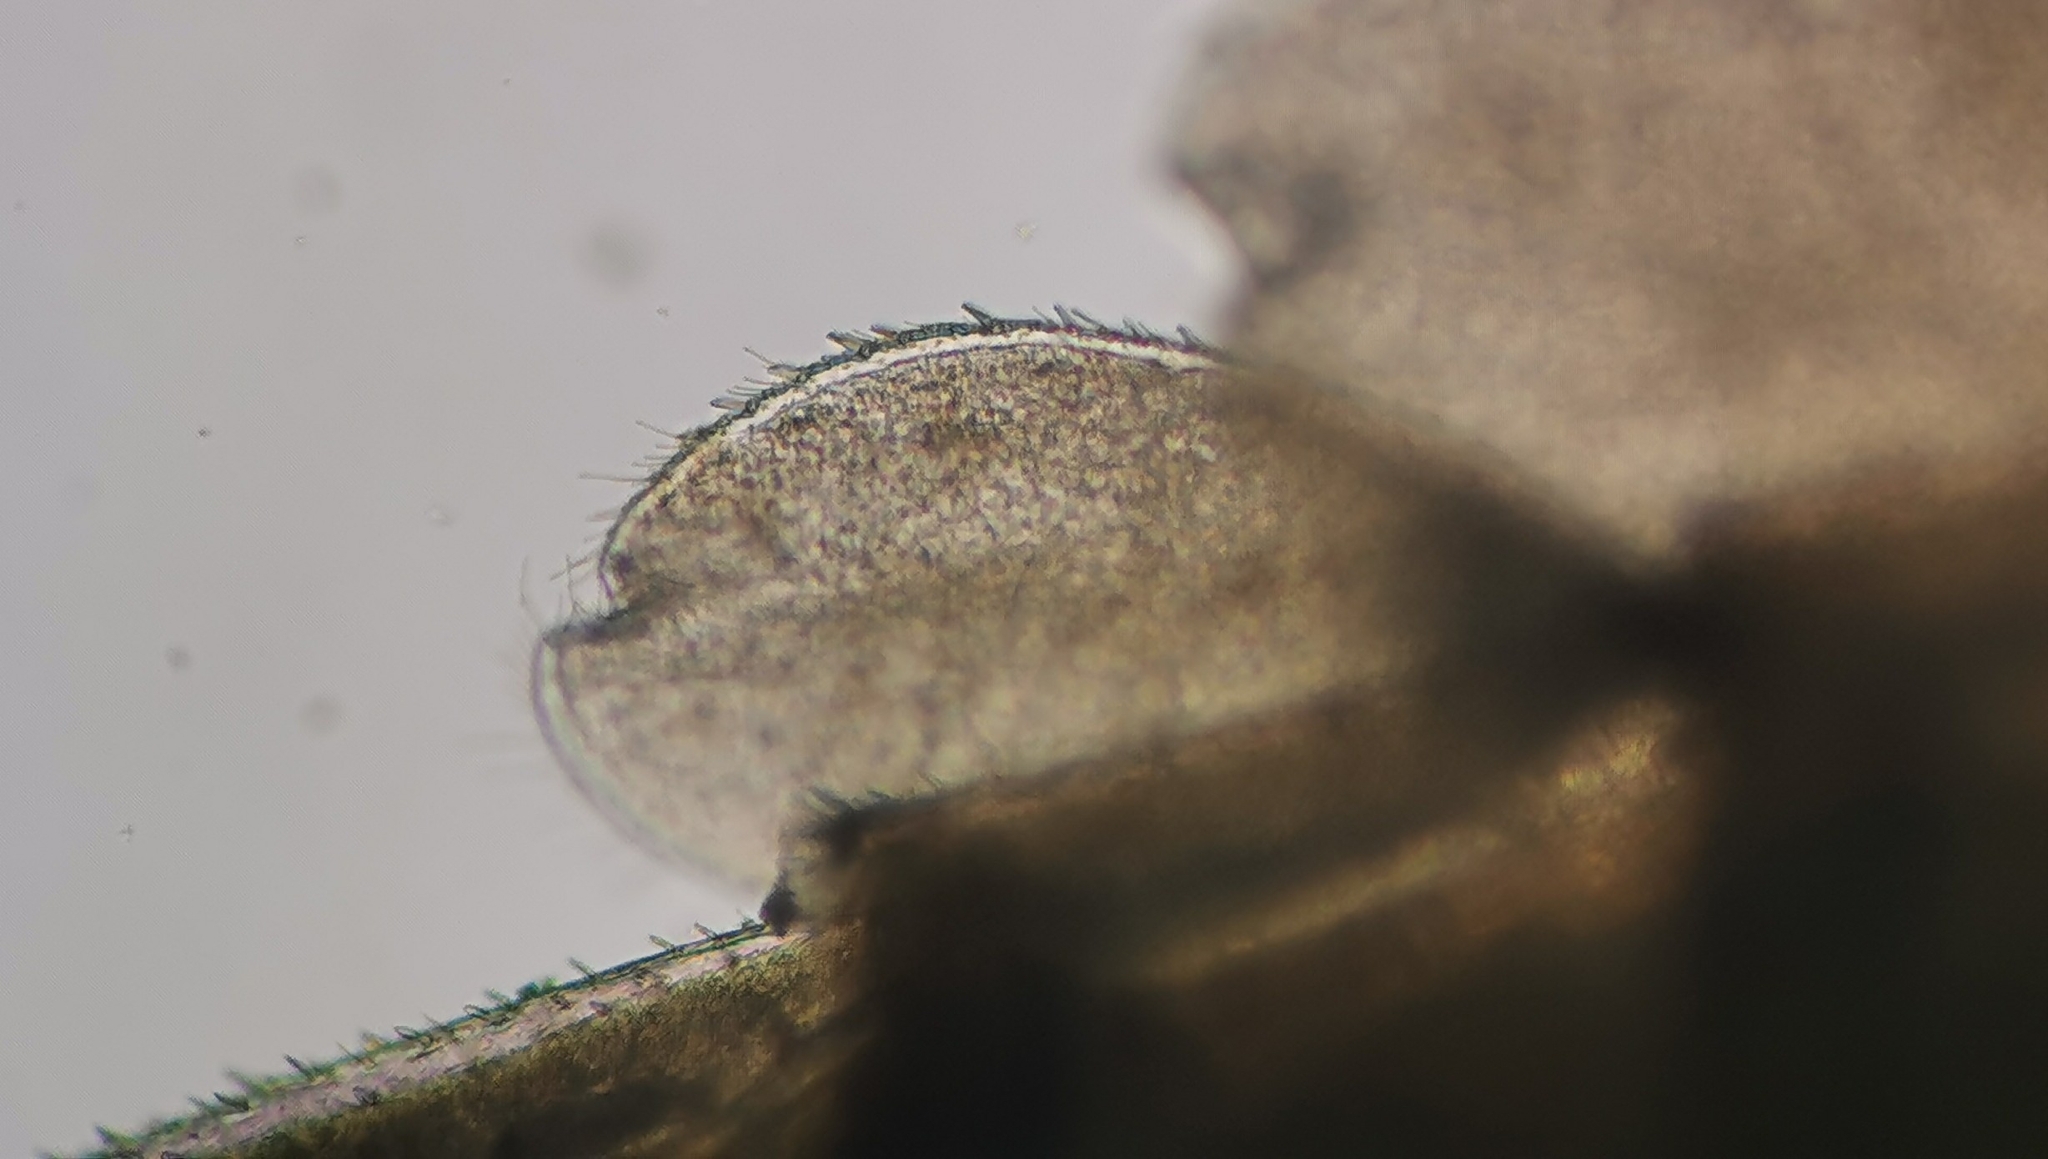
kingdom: Animalia
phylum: Arthropoda
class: Insecta
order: Ephemeroptera
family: Baetidae
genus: Baetis
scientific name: Baetis rhodani
